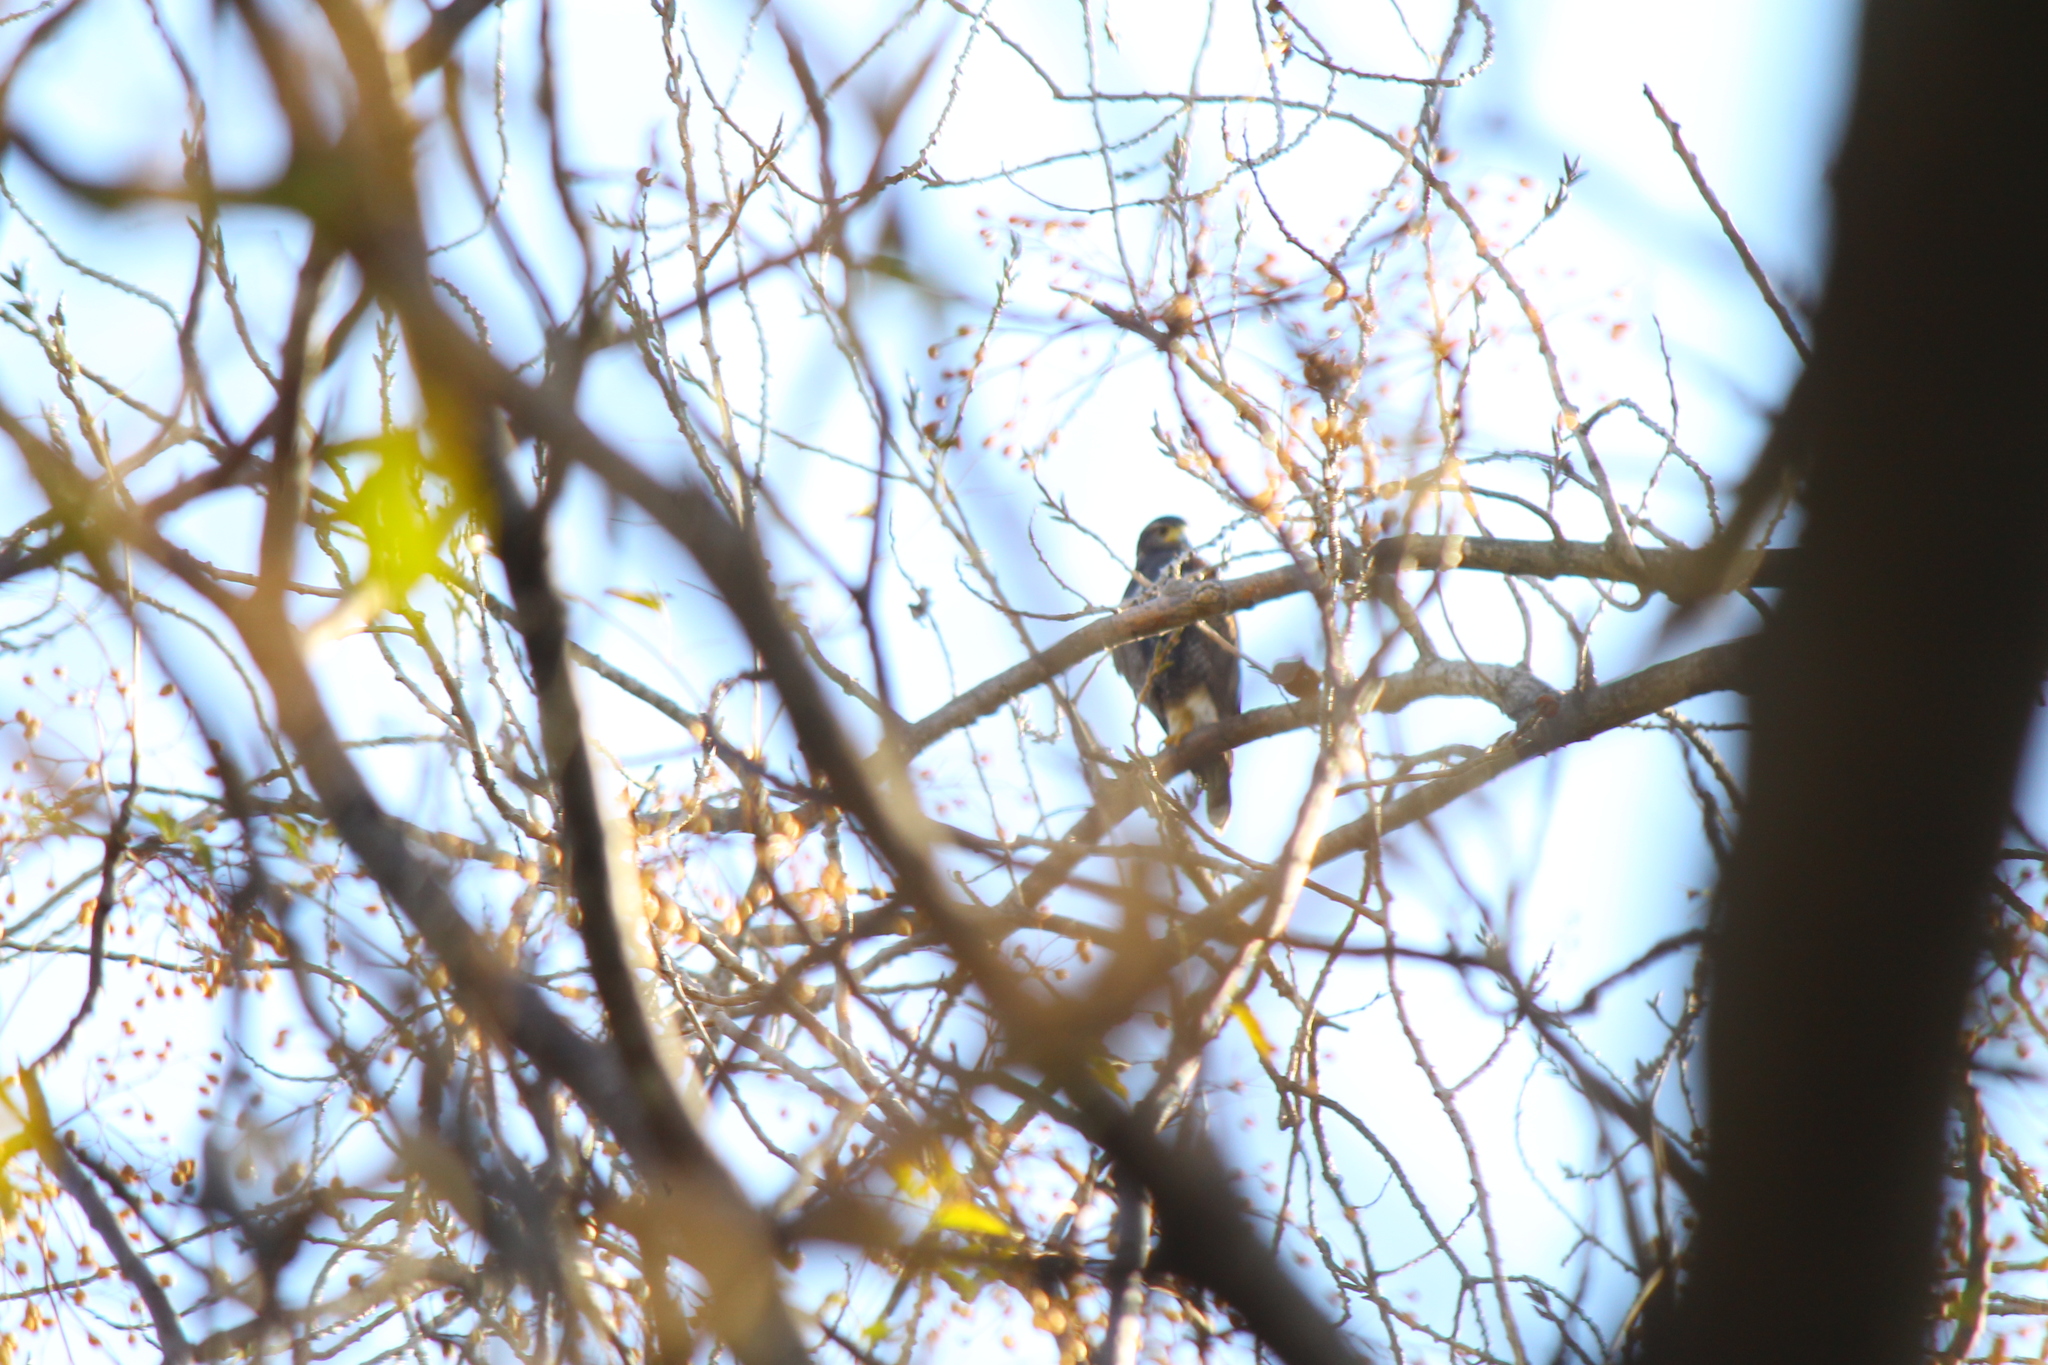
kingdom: Animalia
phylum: Chordata
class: Aves
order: Accipitriformes
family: Accipitridae
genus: Parabuteo
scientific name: Parabuteo unicinctus
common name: Harris's hawk
